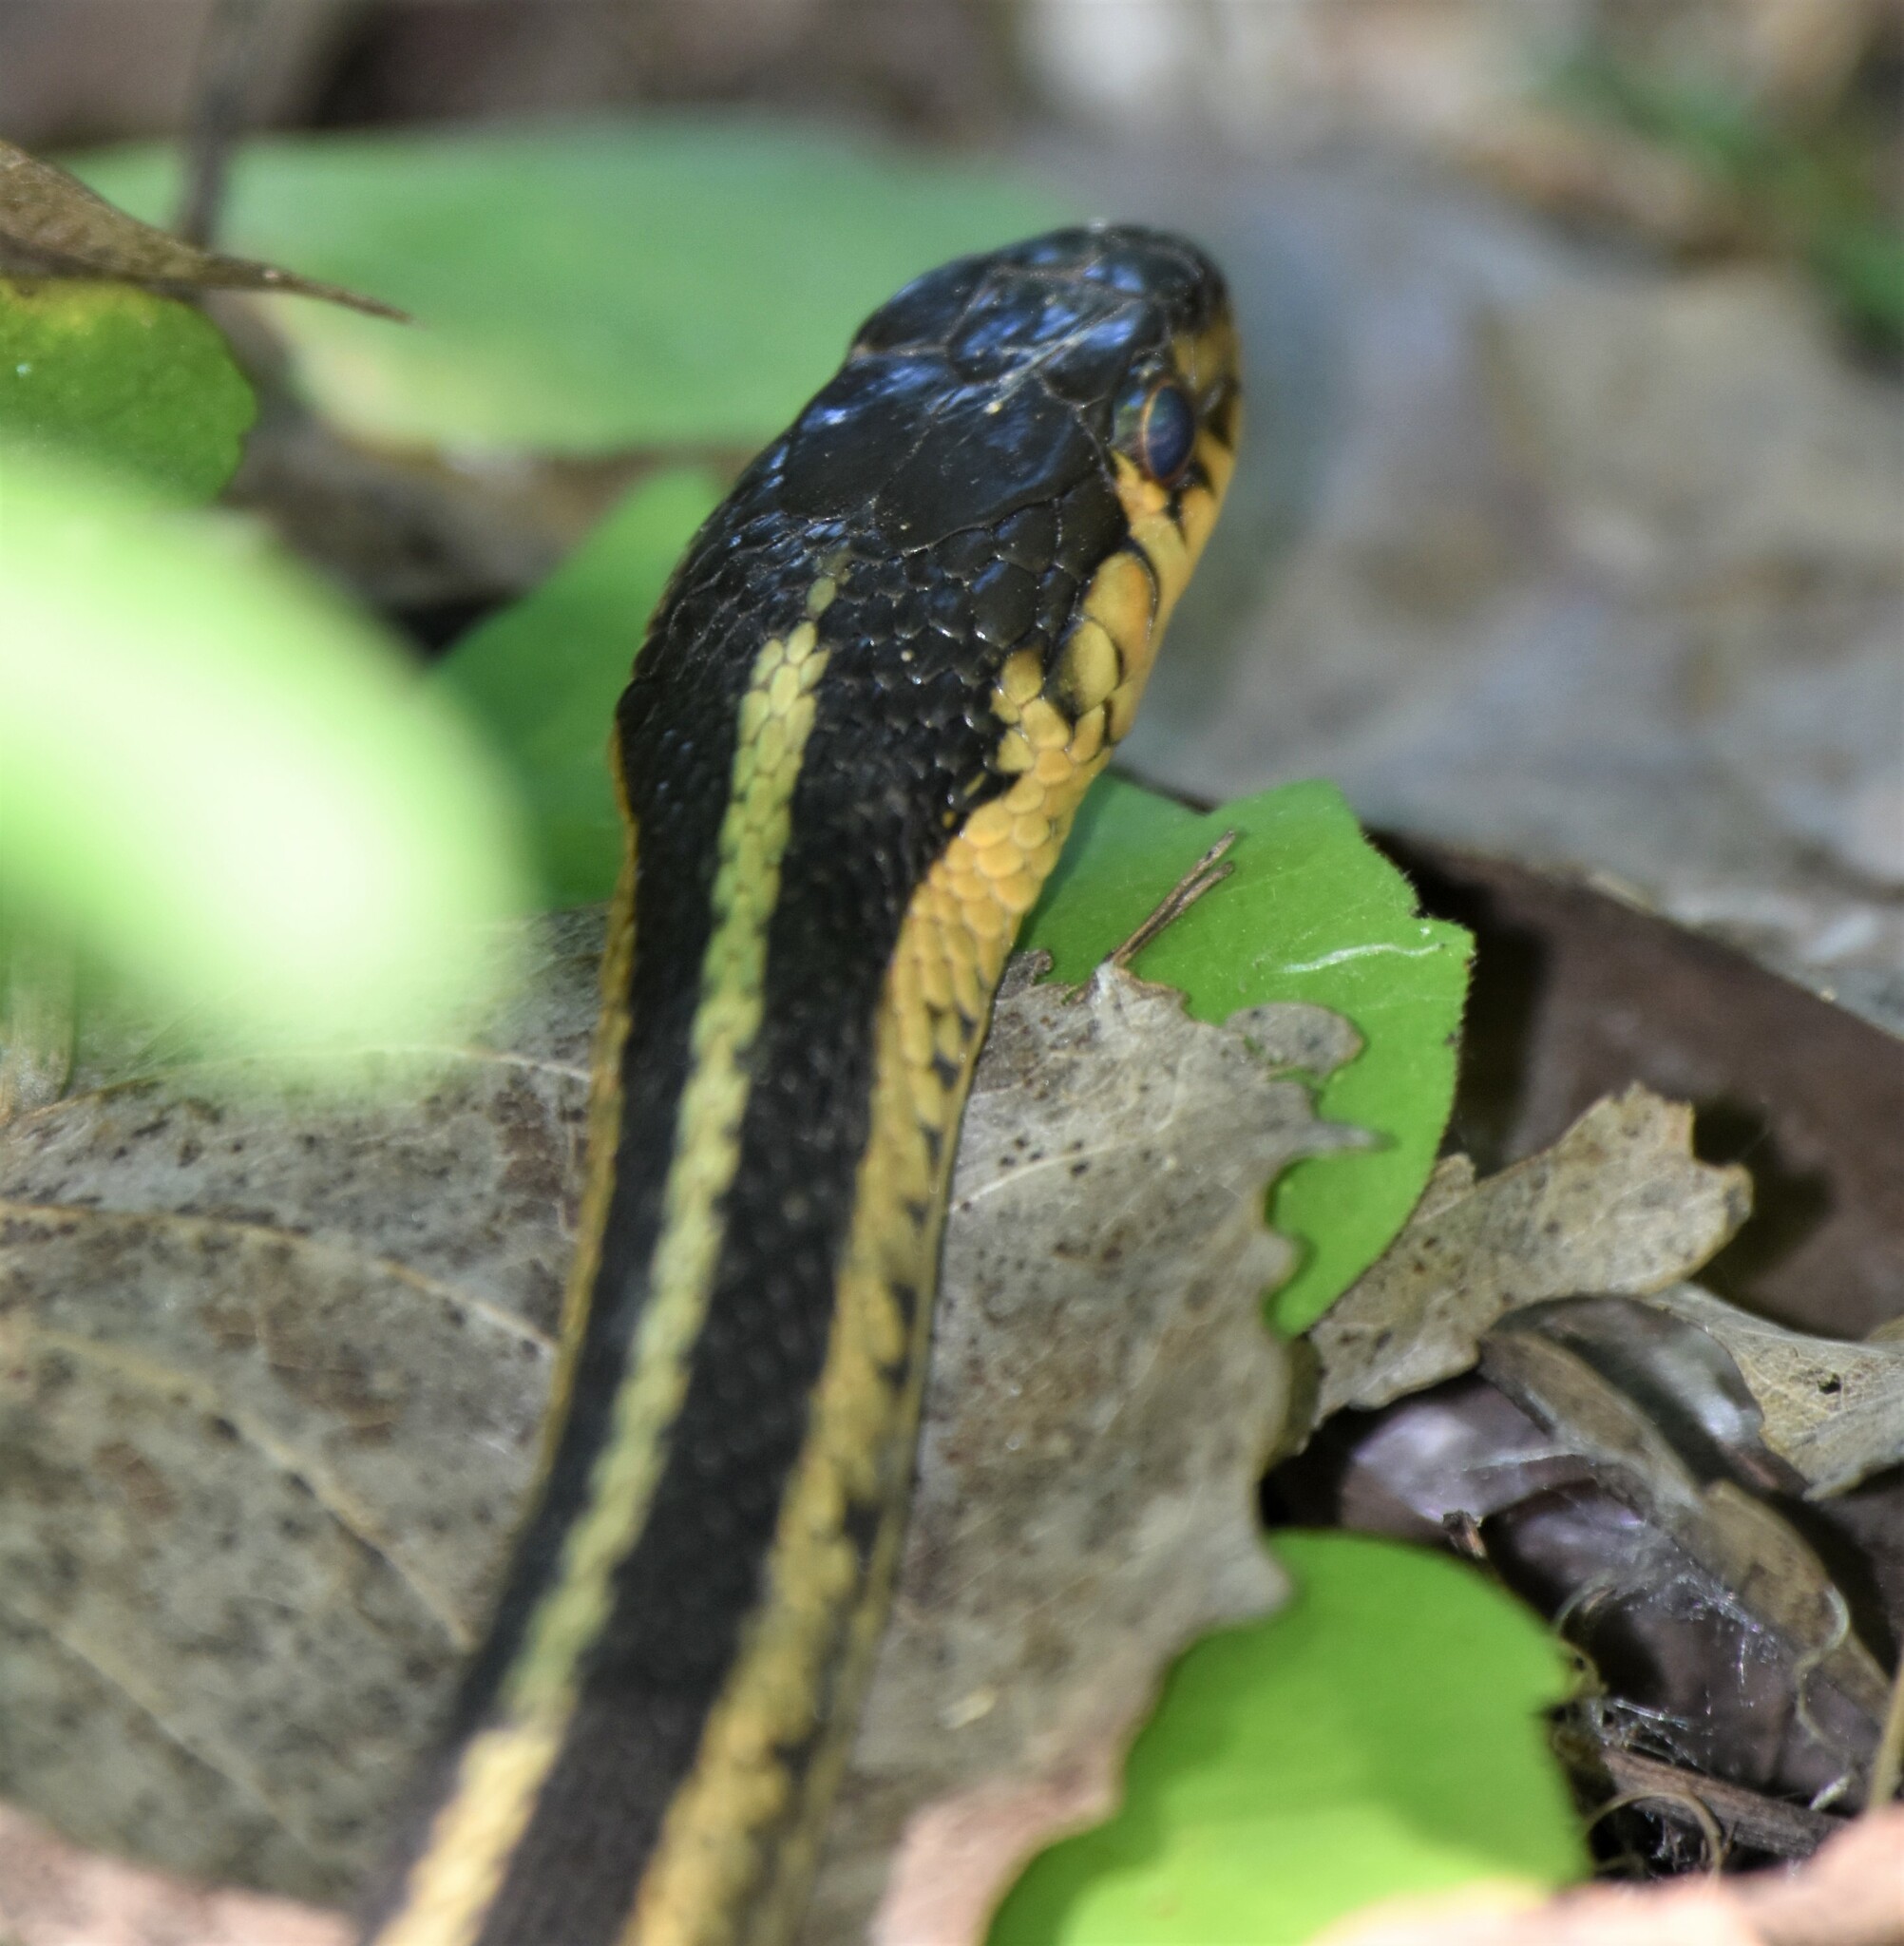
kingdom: Animalia
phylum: Chordata
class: Squamata
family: Colubridae
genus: Thamnophis
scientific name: Thamnophis sirtalis
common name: Common garter snake
